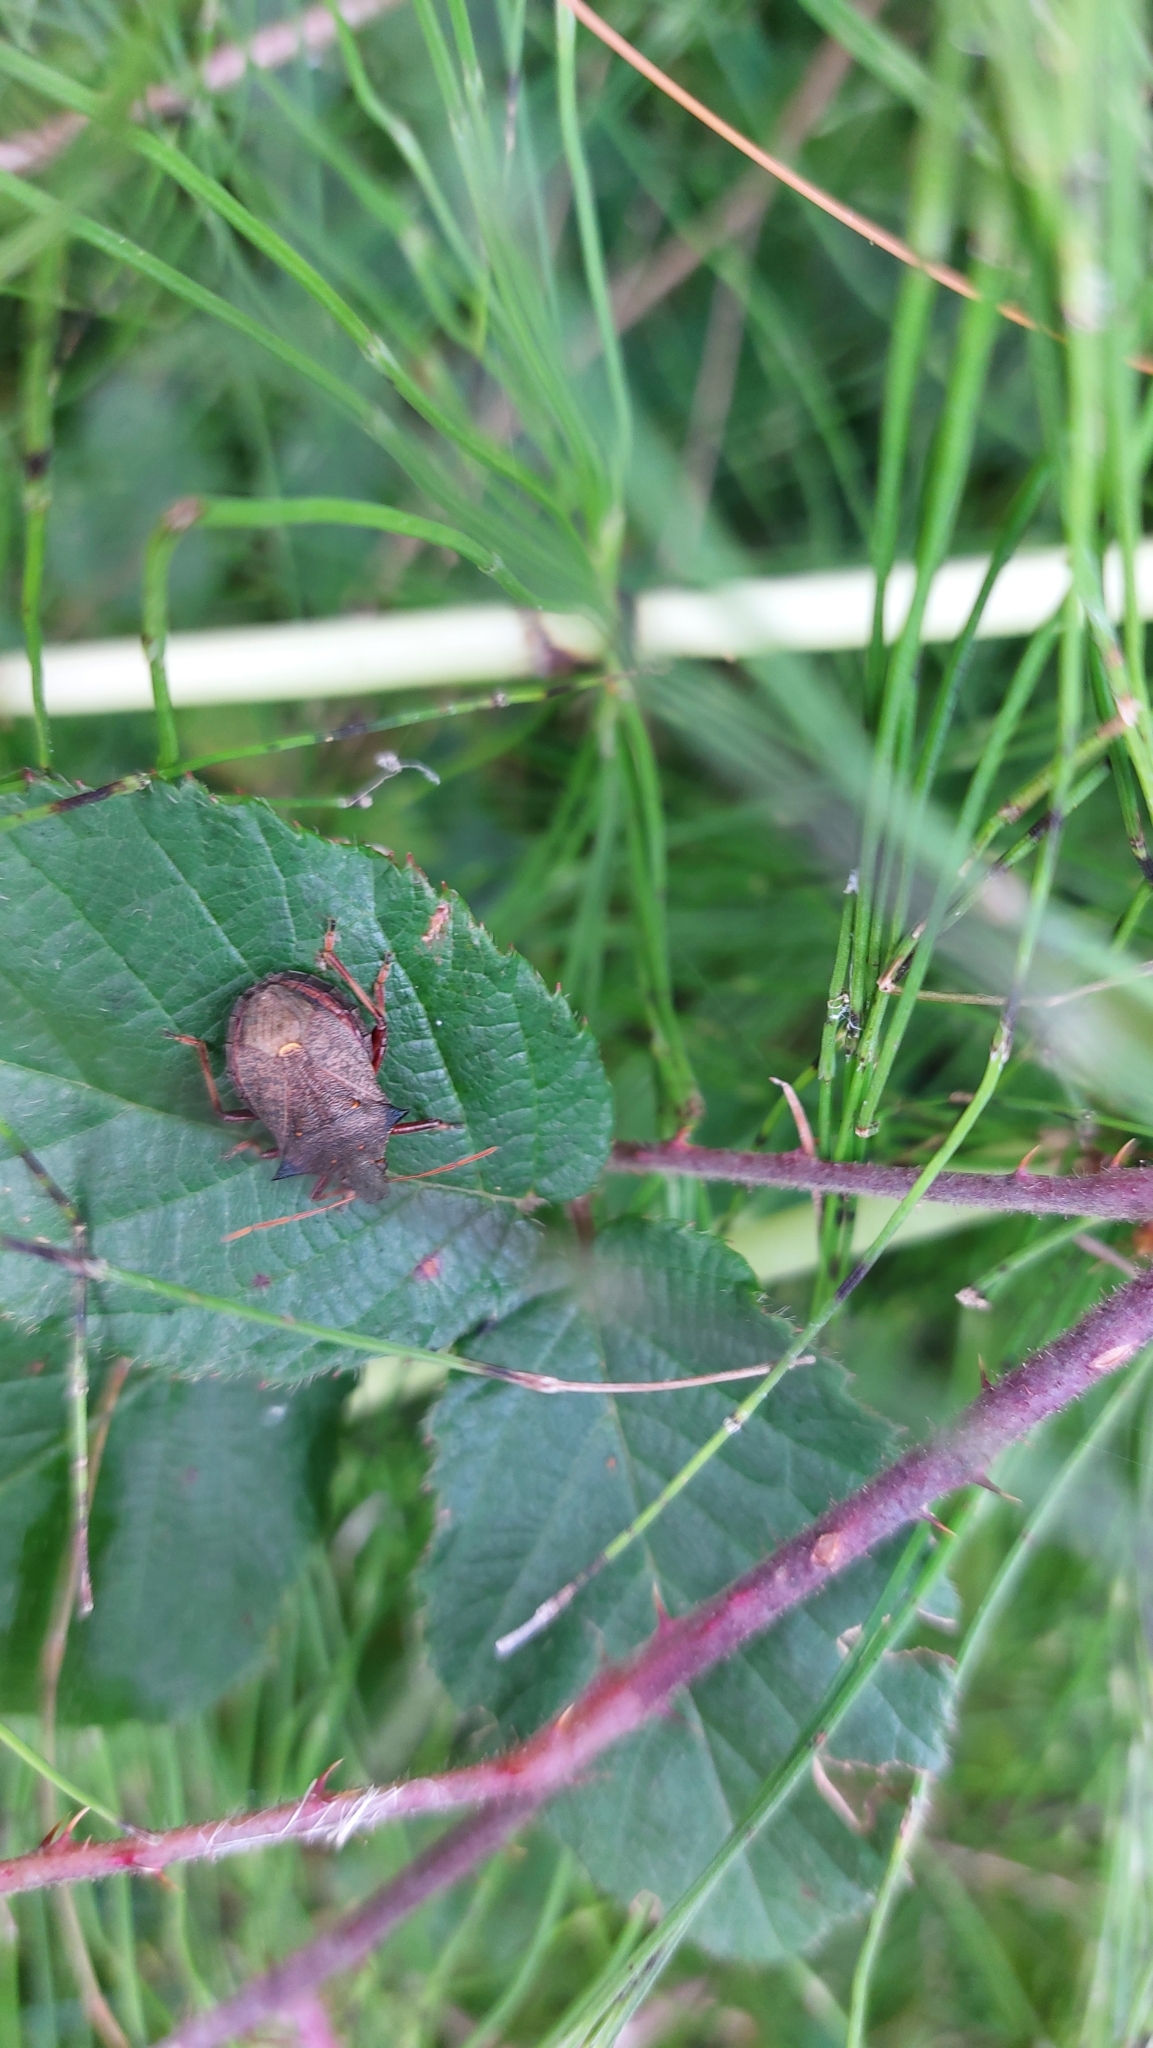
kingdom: Animalia
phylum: Arthropoda
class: Insecta
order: Hemiptera
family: Pentatomidae
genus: Picromerus
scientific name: Picromerus bidens
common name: Spiked shieldbug
